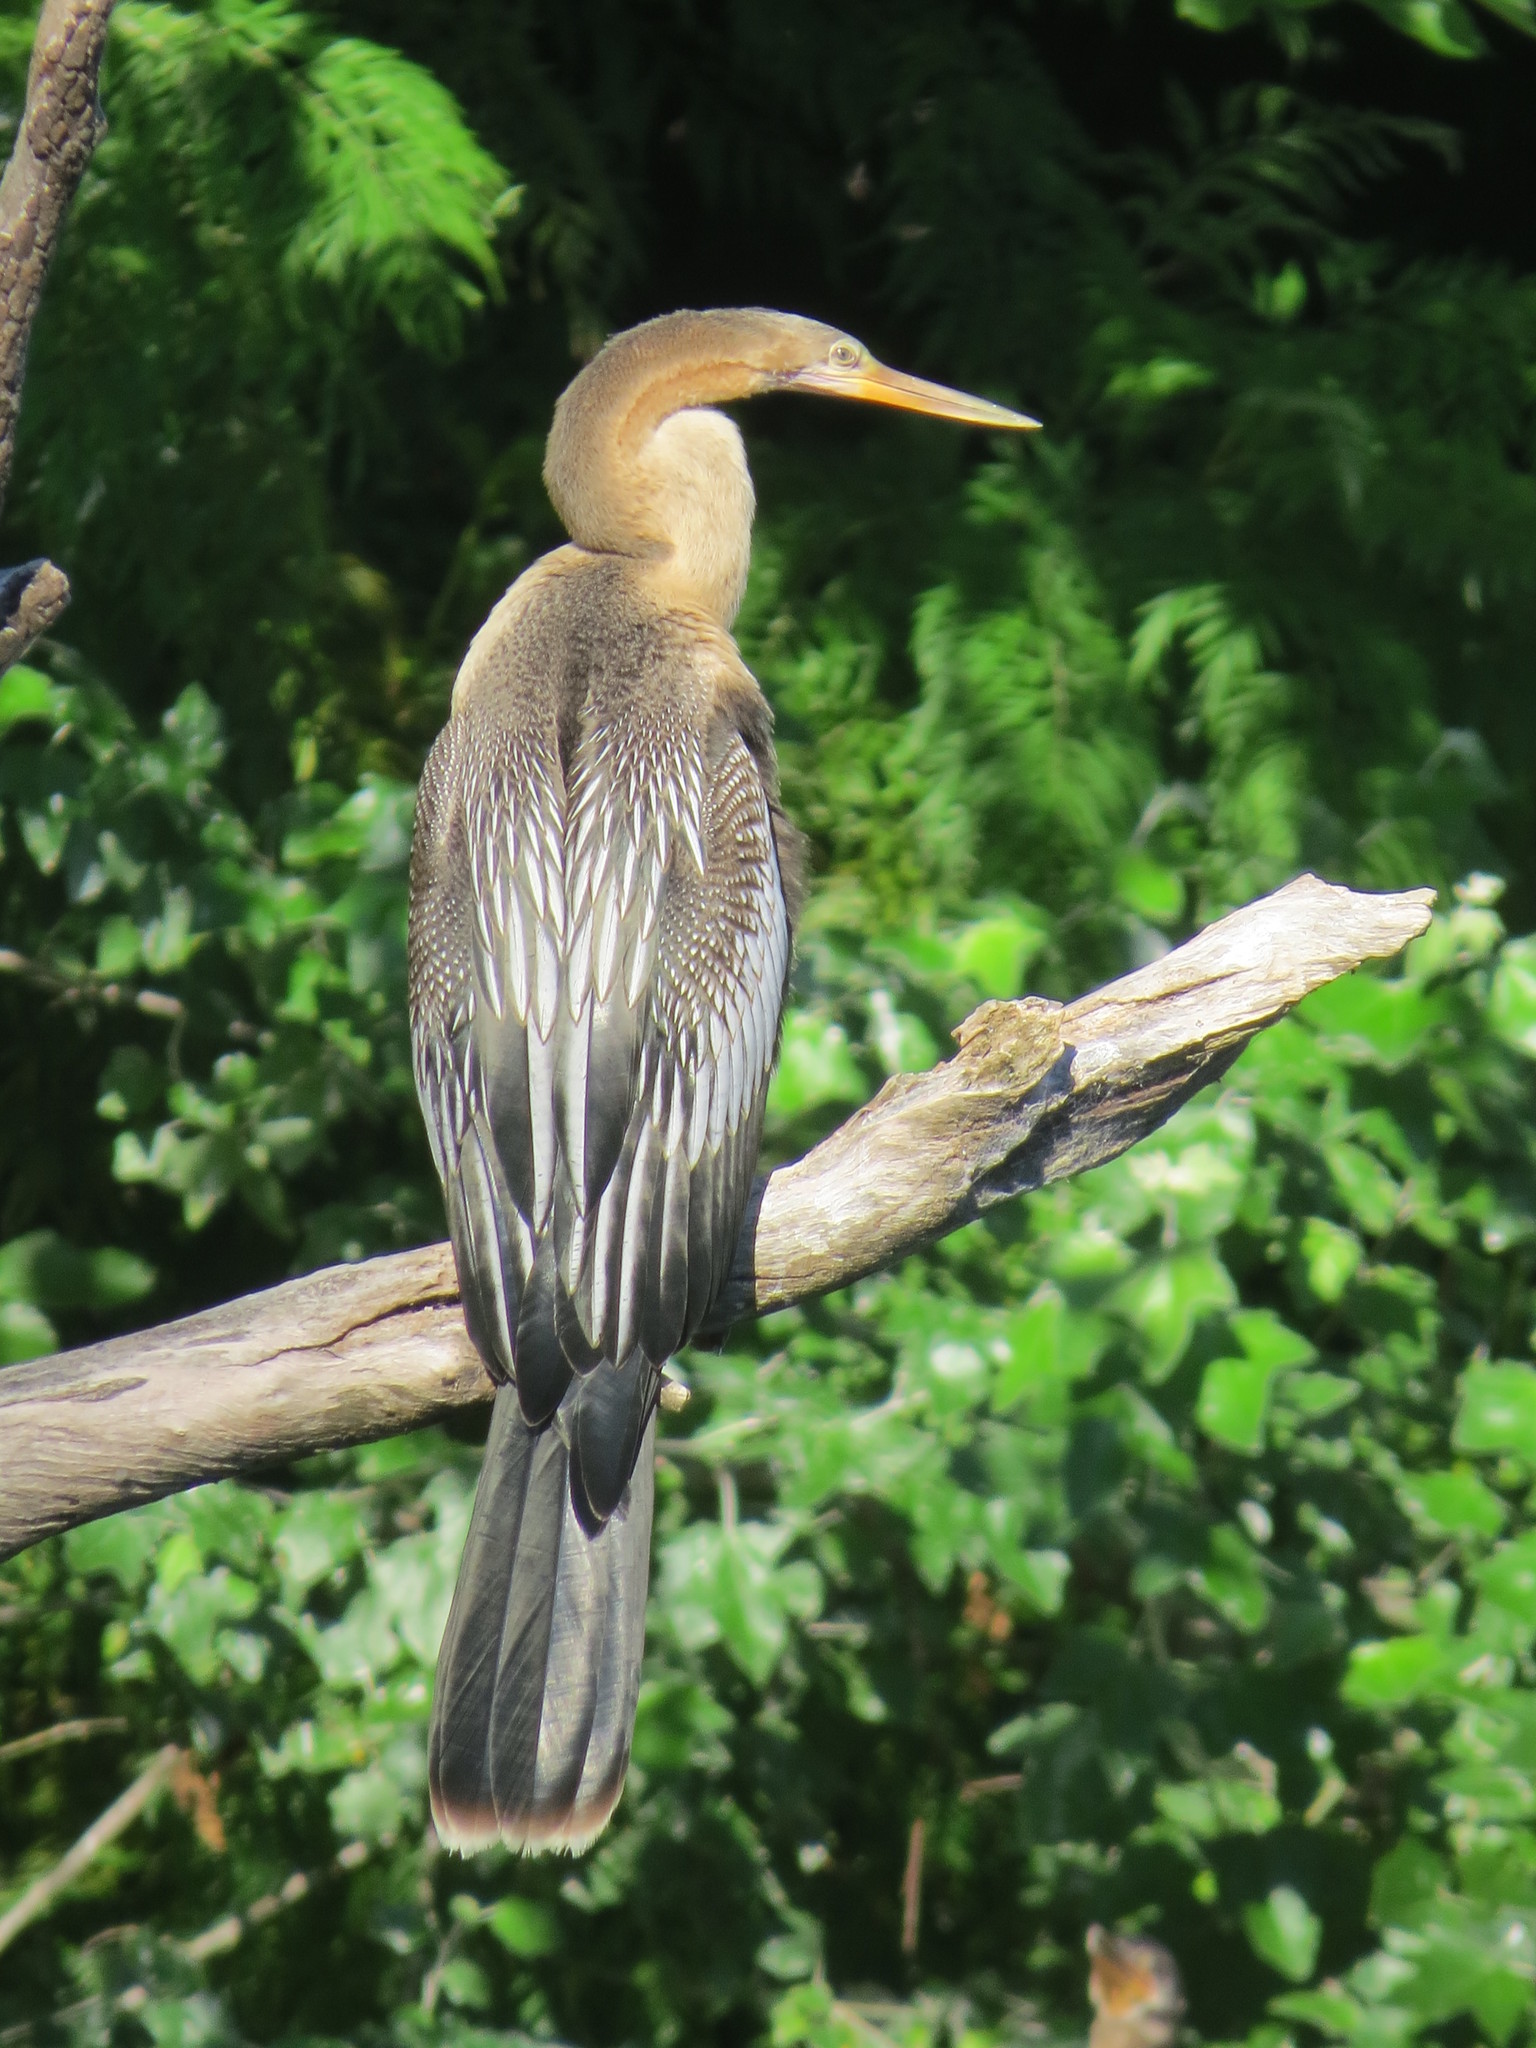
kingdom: Animalia
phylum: Chordata
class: Aves
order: Suliformes
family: Anhingidae
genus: Anhinga
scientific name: Anhinga anhinga
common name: Anhinga
